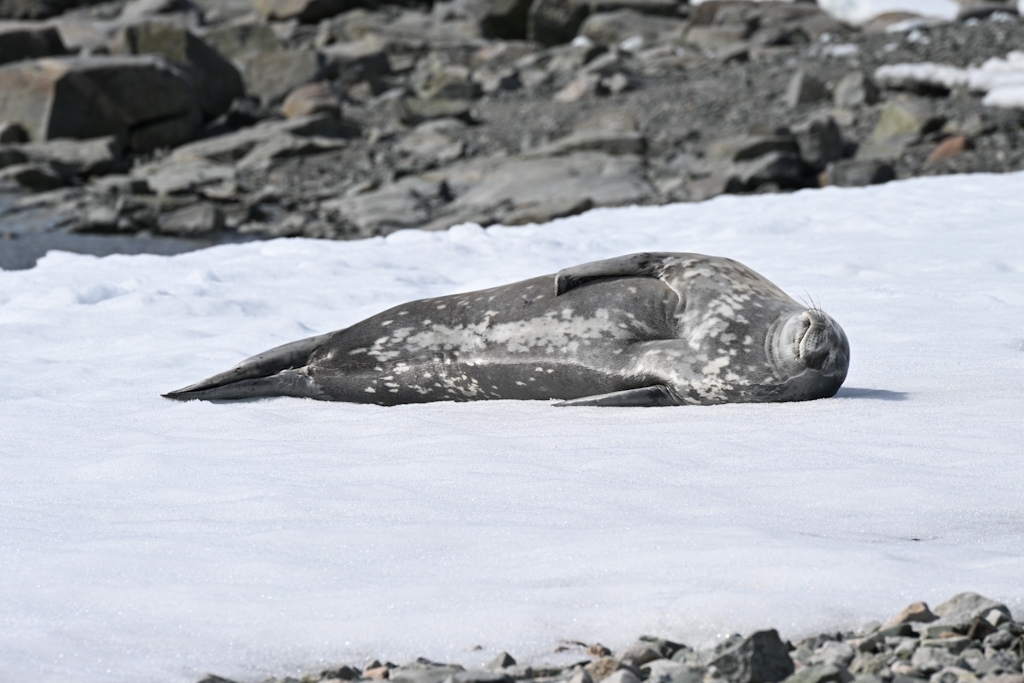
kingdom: Animalia
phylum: Chordata
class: Mammalia
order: Carnivora
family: Phocidae
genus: Leptonychotes
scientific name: Leptonychotes weddellii
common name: Weddell seal
